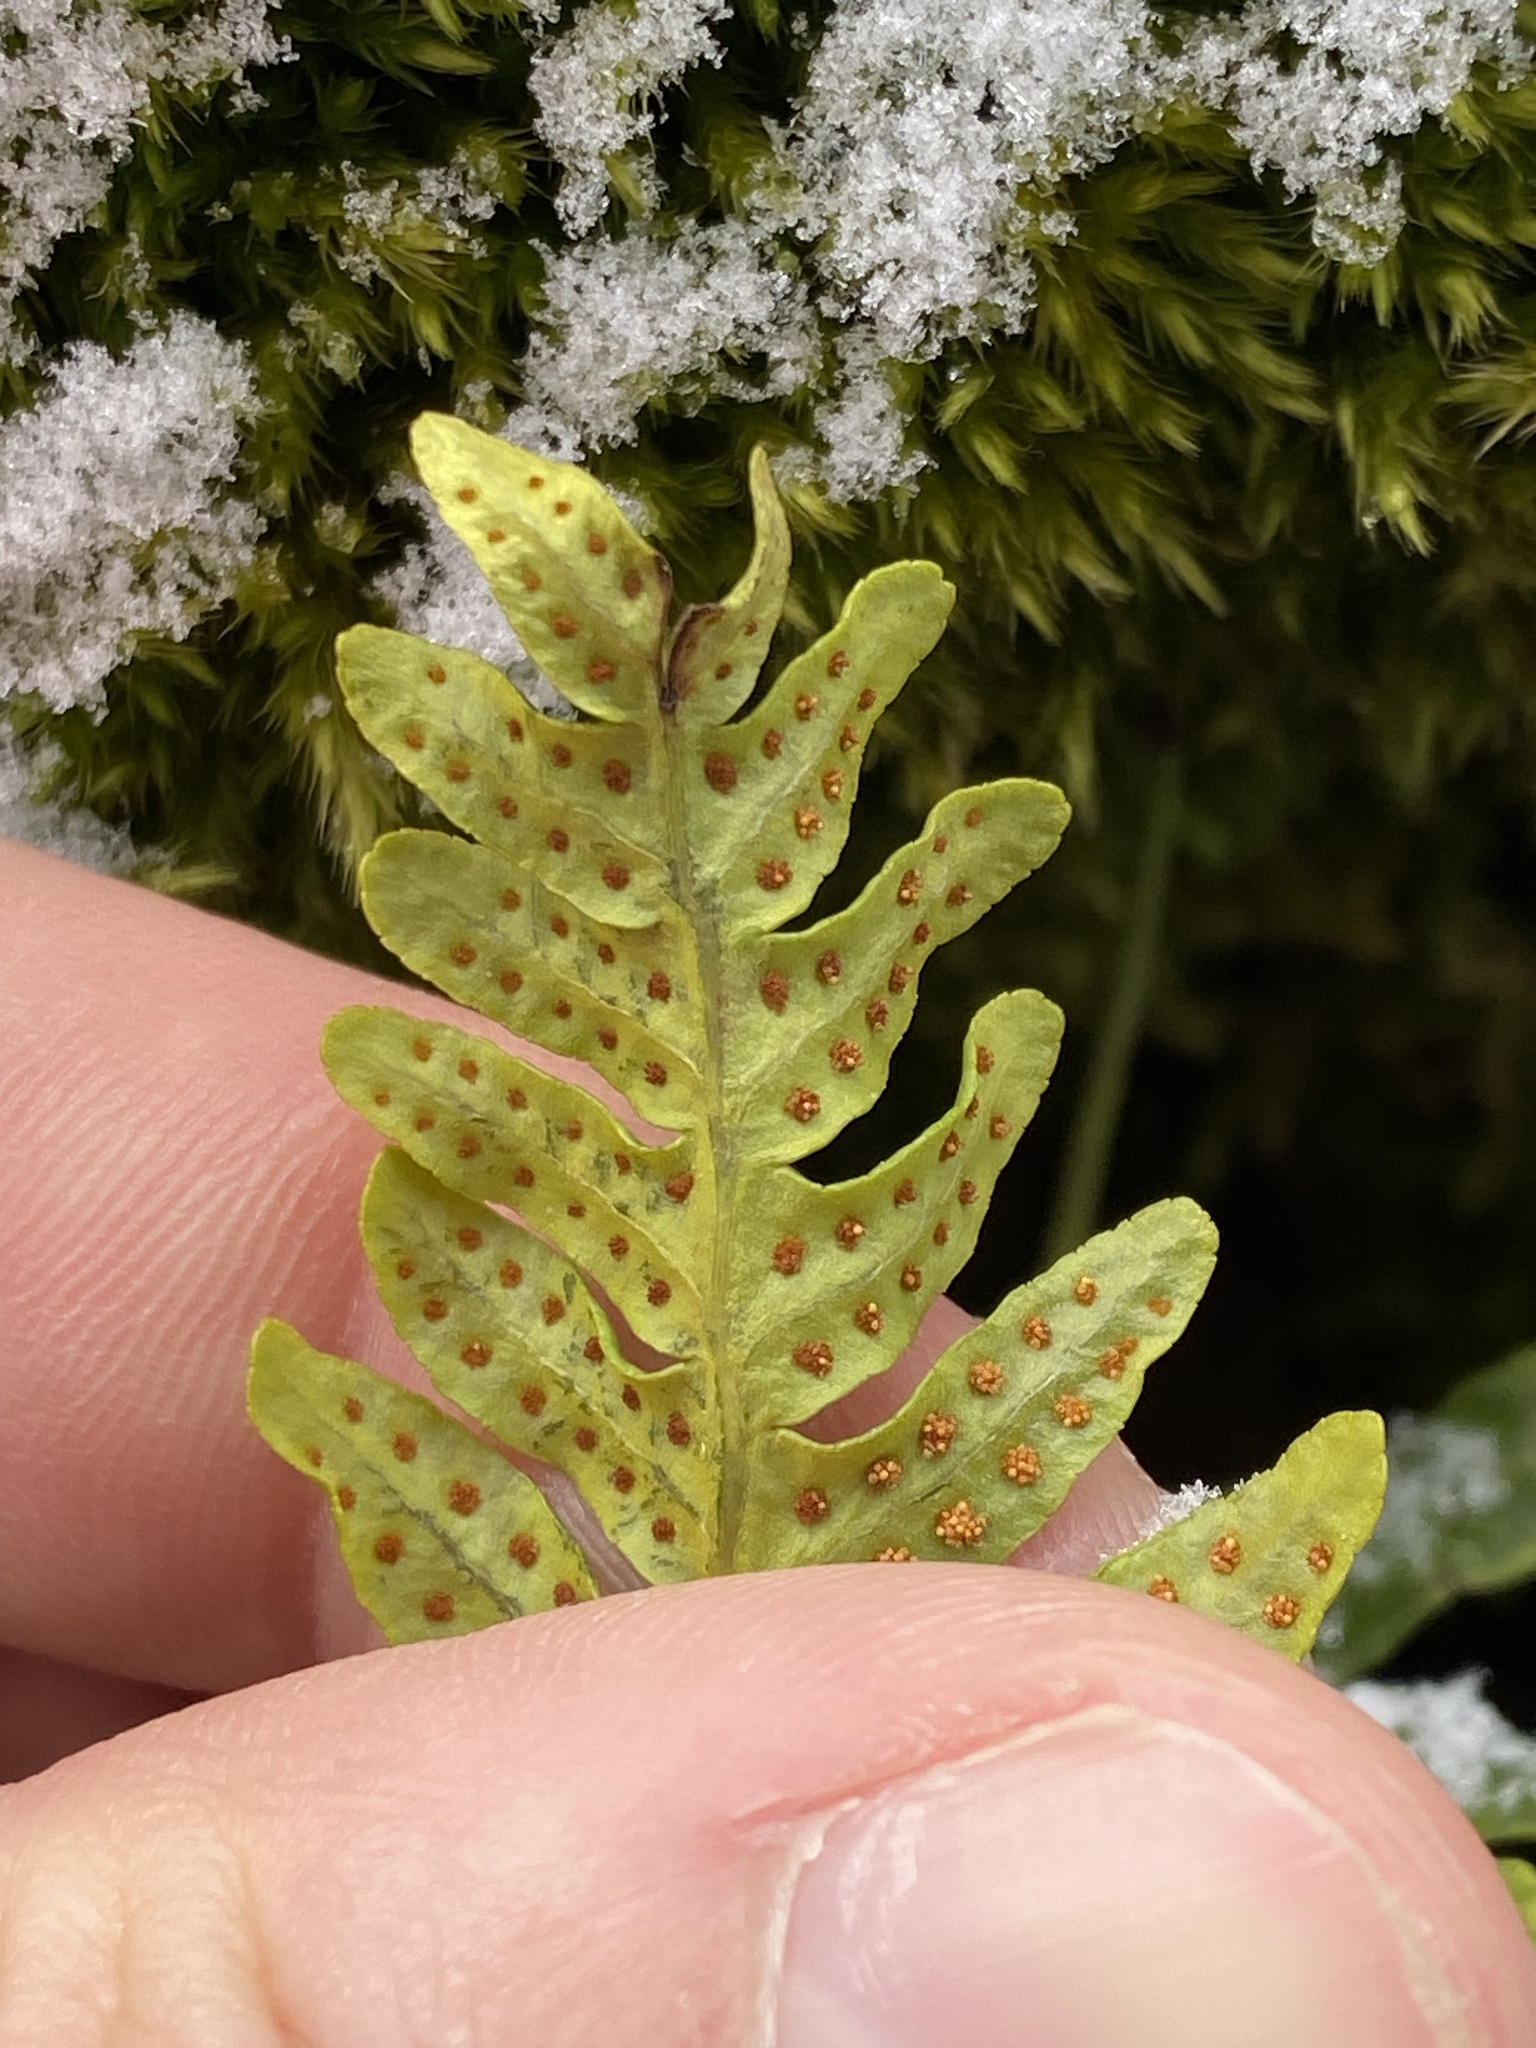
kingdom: Plantae
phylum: Tracheophyta
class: Polypodiopsida
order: Polypodiales
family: Polypodiaceae
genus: Polypodium
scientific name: Polypodium vulgare
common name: Common polypody
